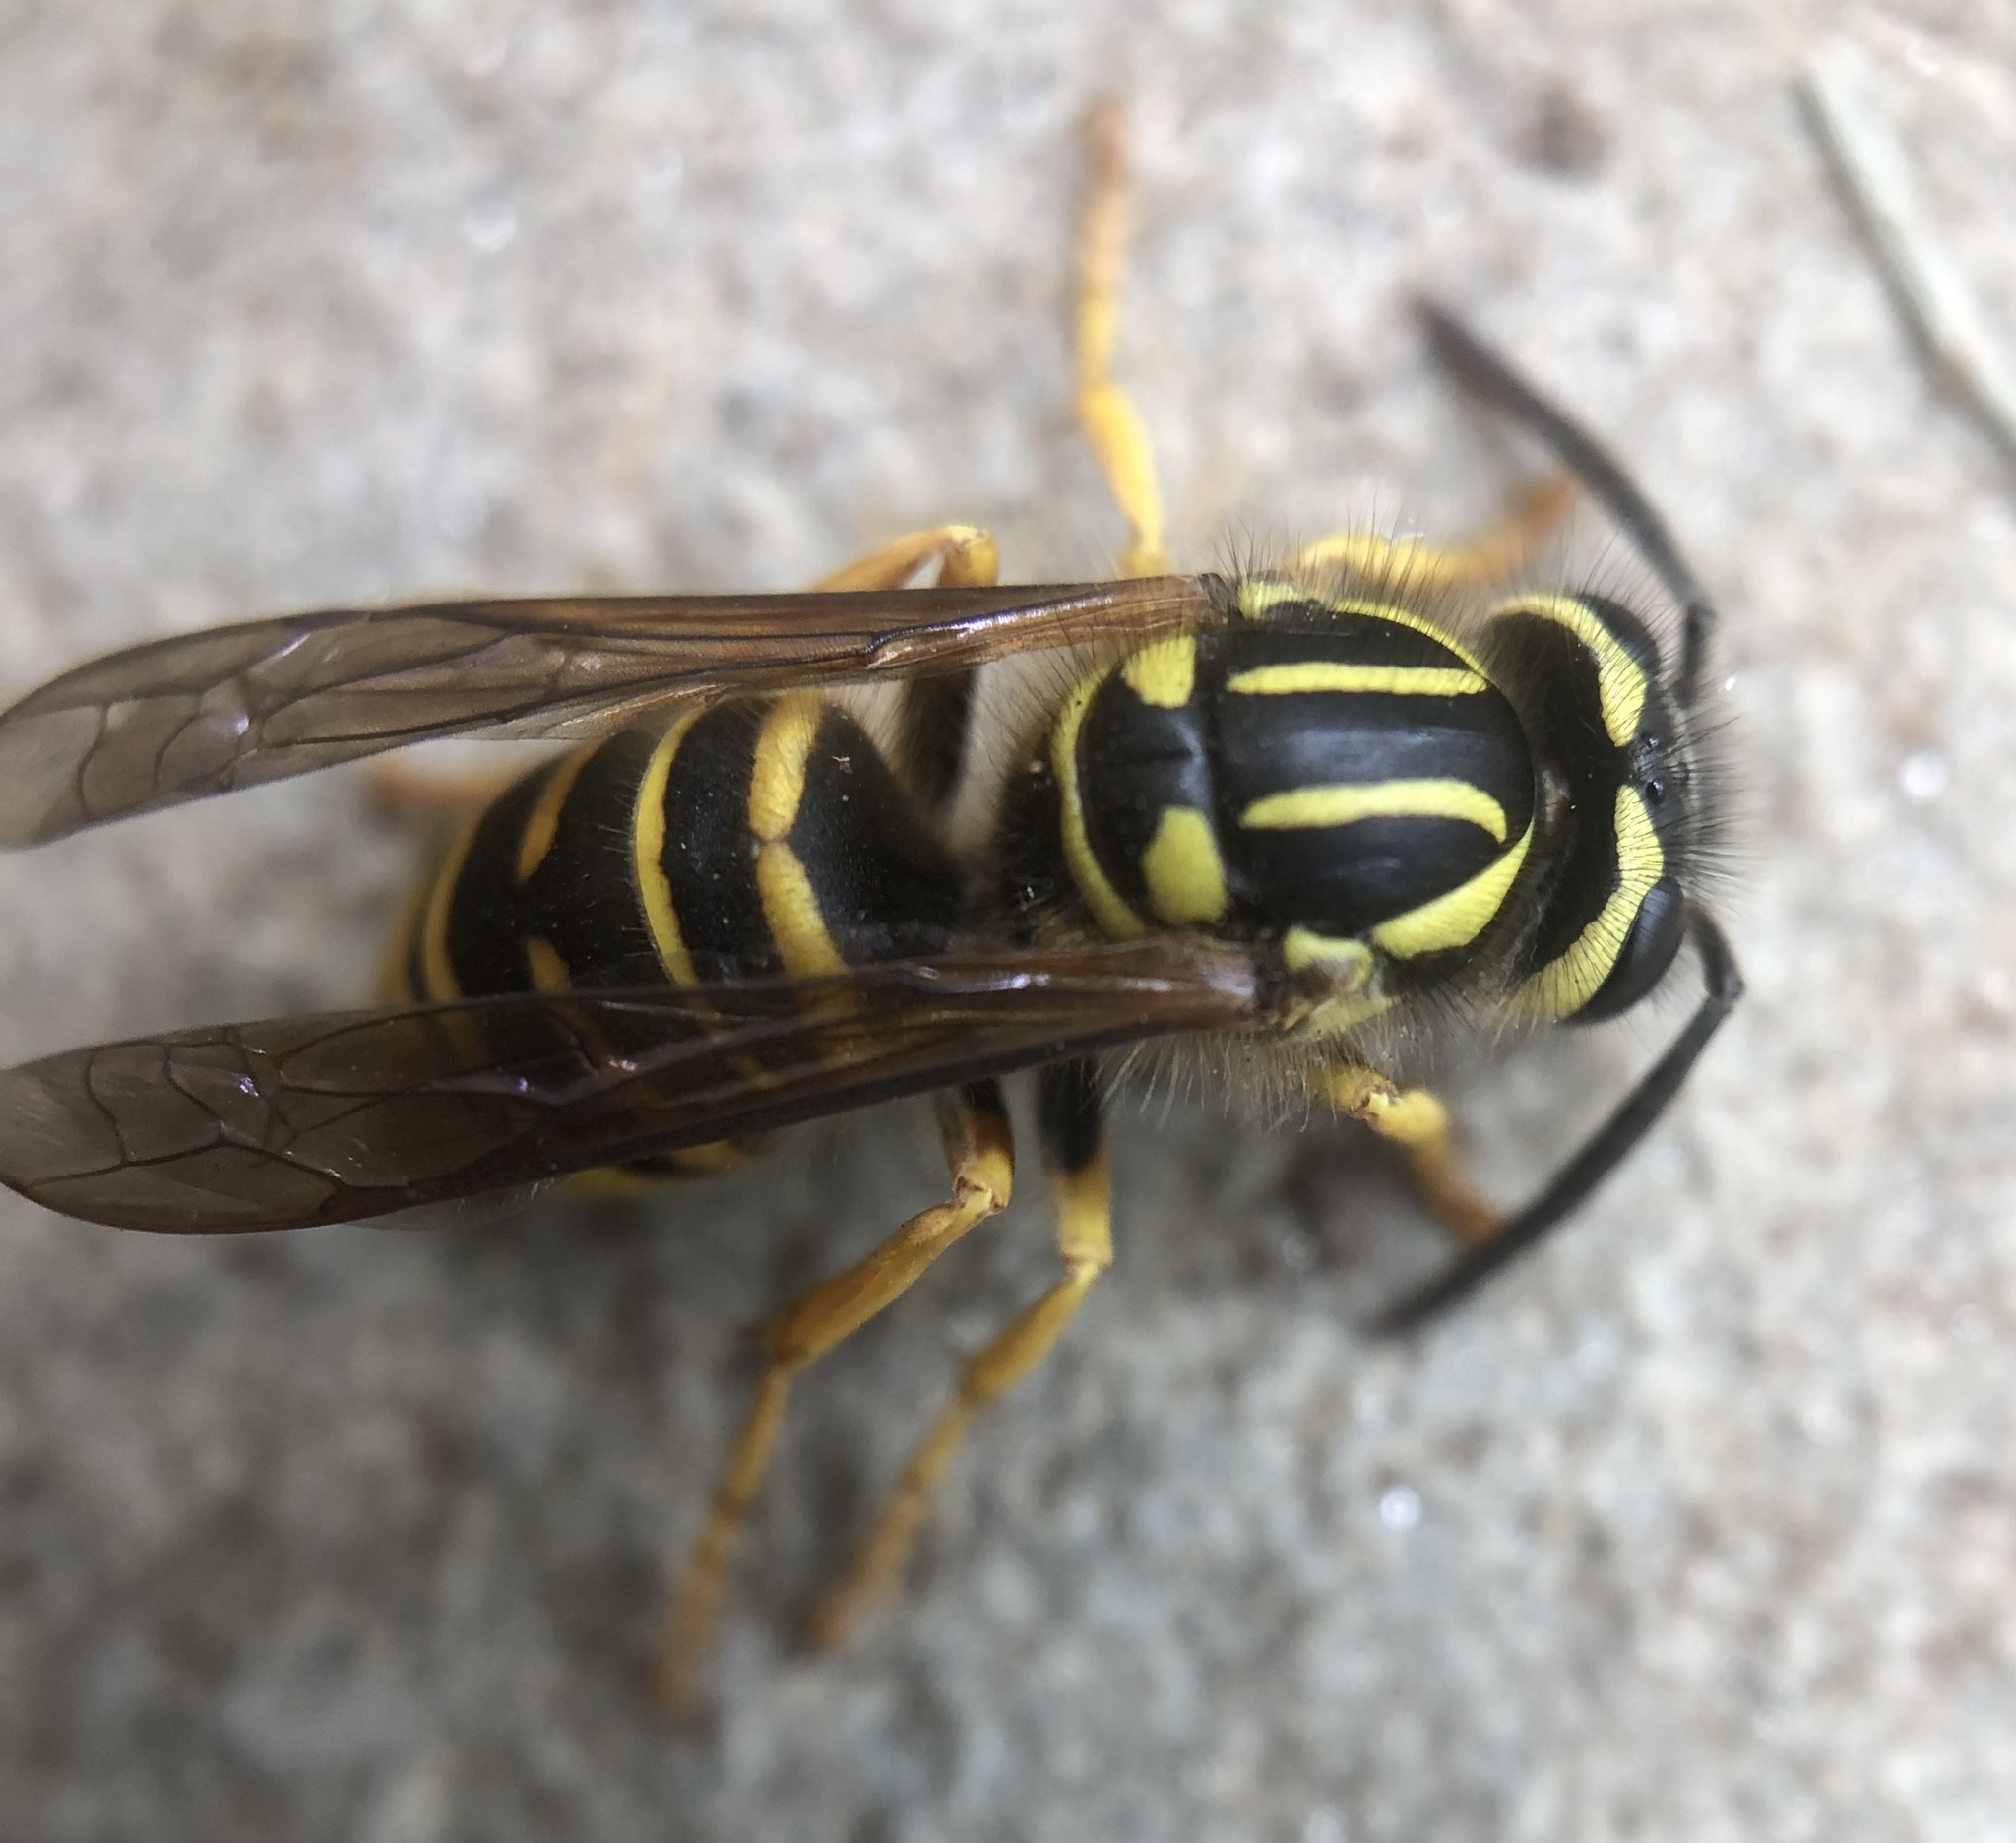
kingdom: Animalia
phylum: Arthropoda
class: Insecta
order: Hymenoptera
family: Vespidae
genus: Vespula
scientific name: Vespula squamosa
